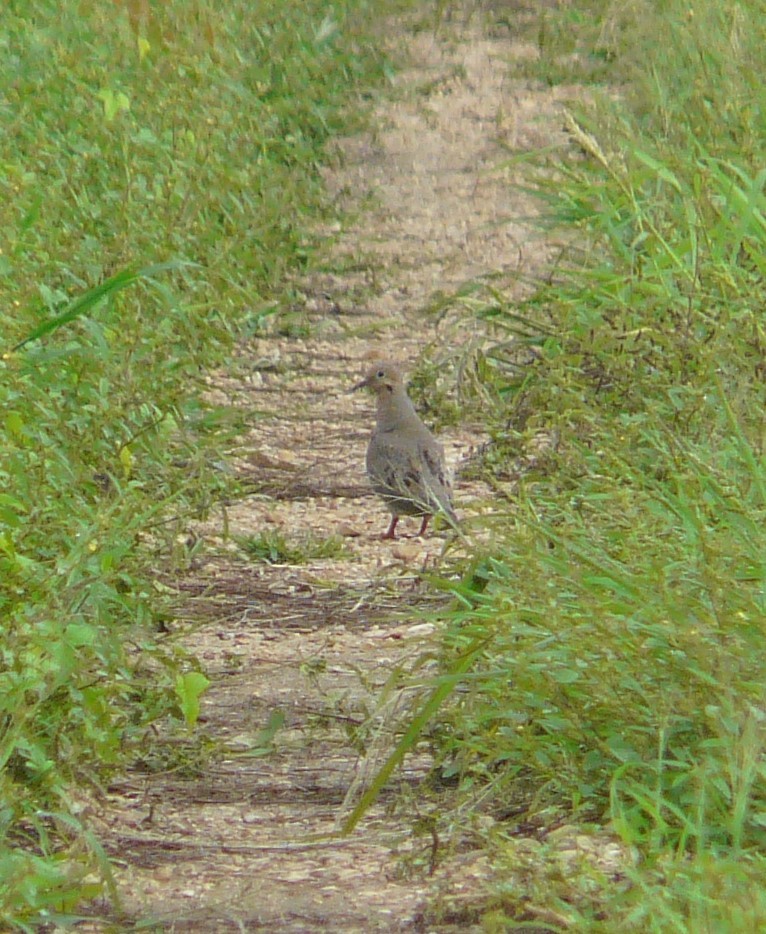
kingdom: Animalia
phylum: Chordata
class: Aves
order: Columbiformes
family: Columbidae
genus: Zenaida
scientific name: Zenaida macroura
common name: Mourning dove
